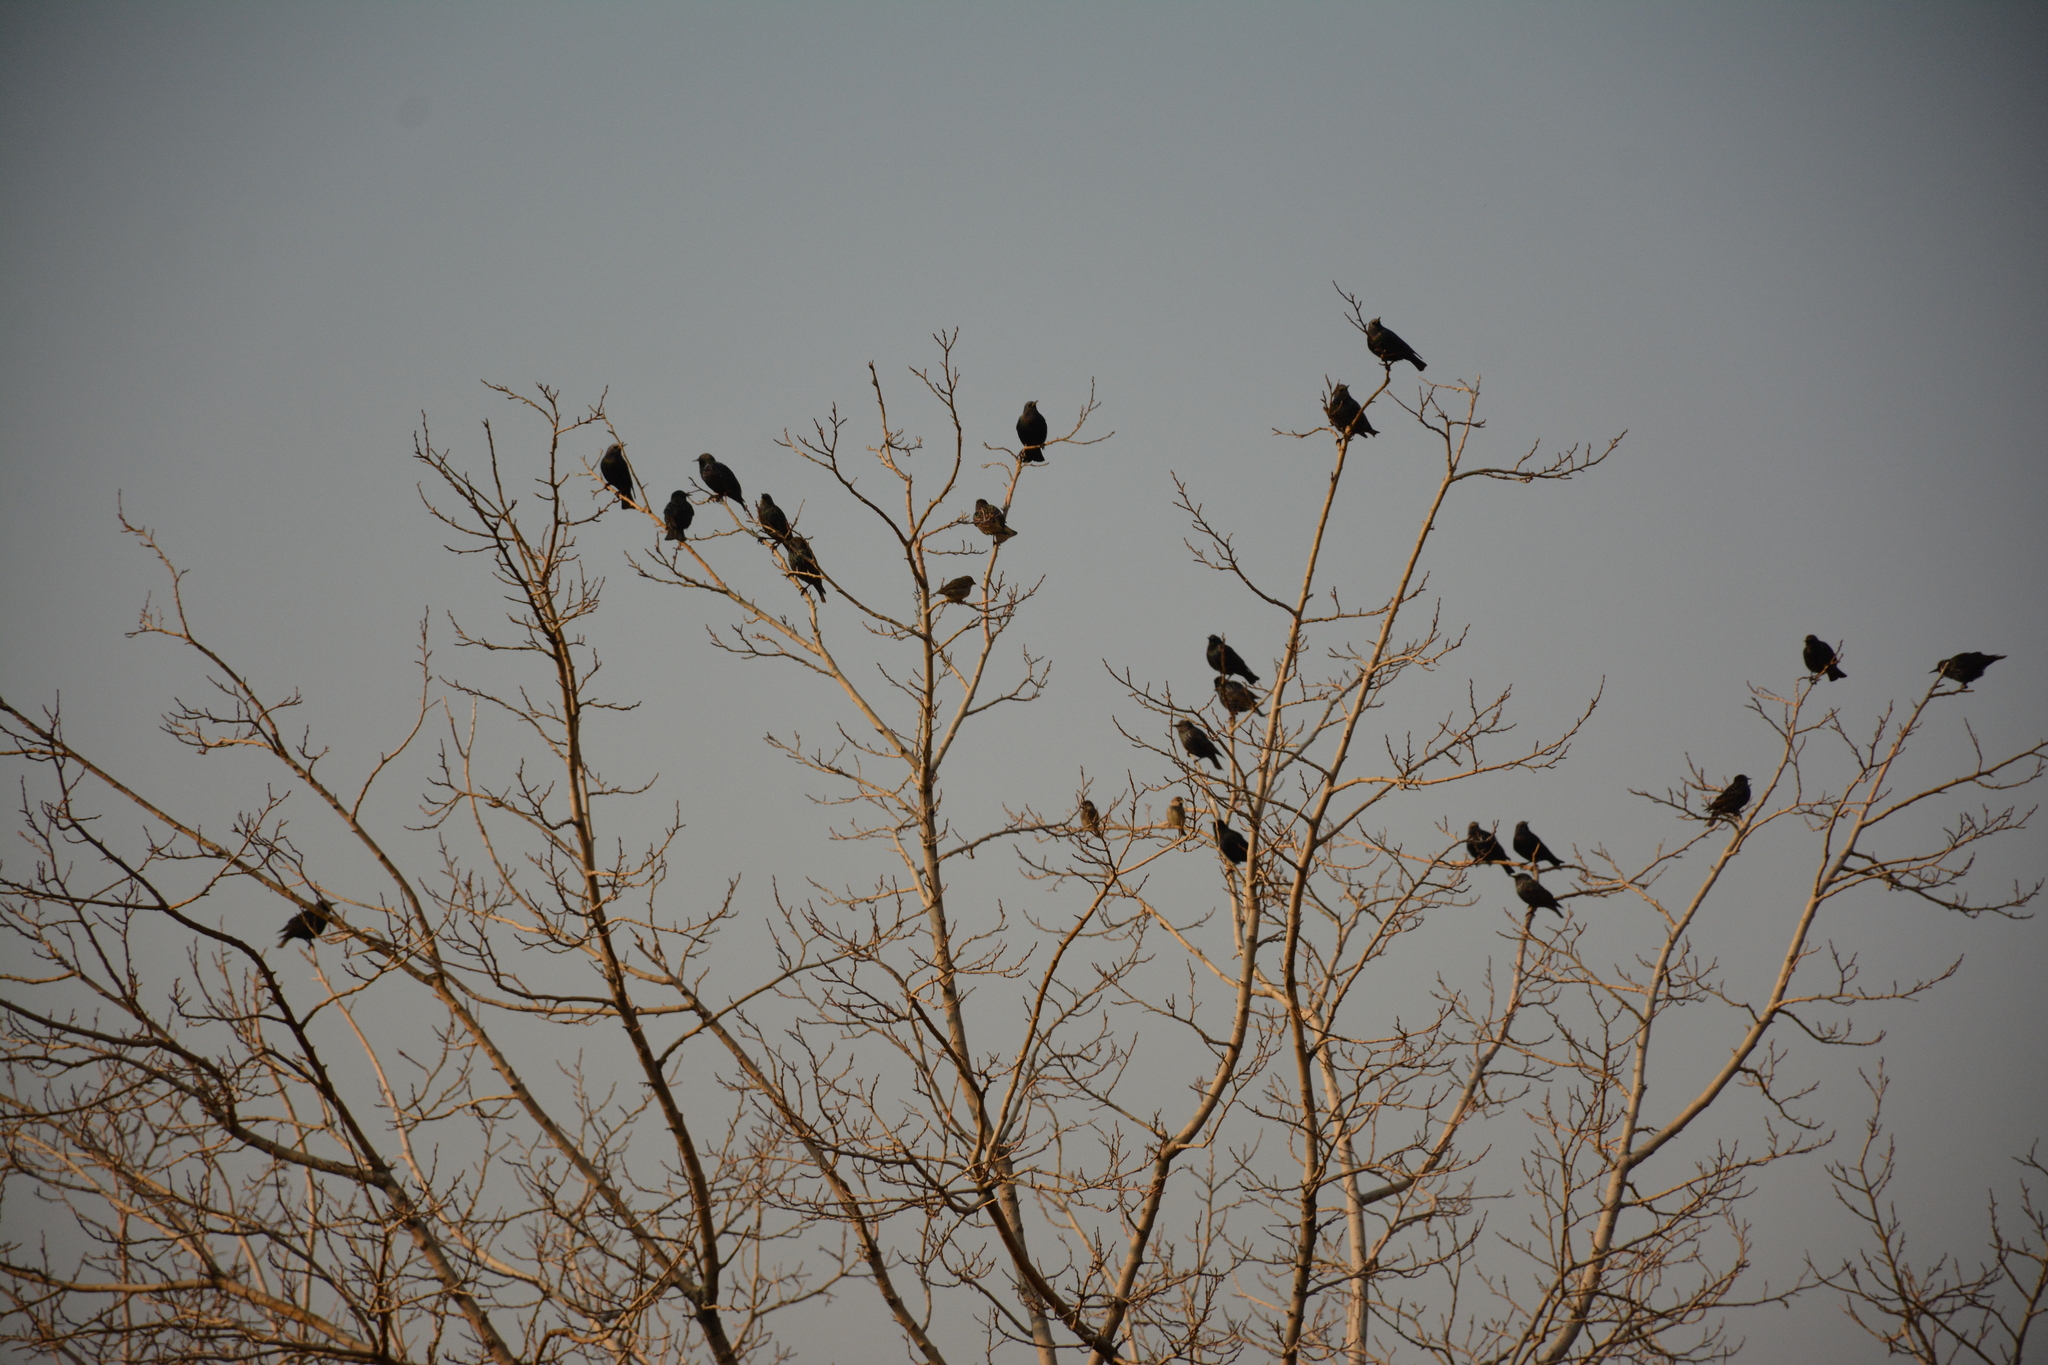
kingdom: Animalia
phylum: Chordata
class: Aves
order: Passeriformes
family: Sturnidae
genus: Sturnus
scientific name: Sturnus vulgaris
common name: Common starling
